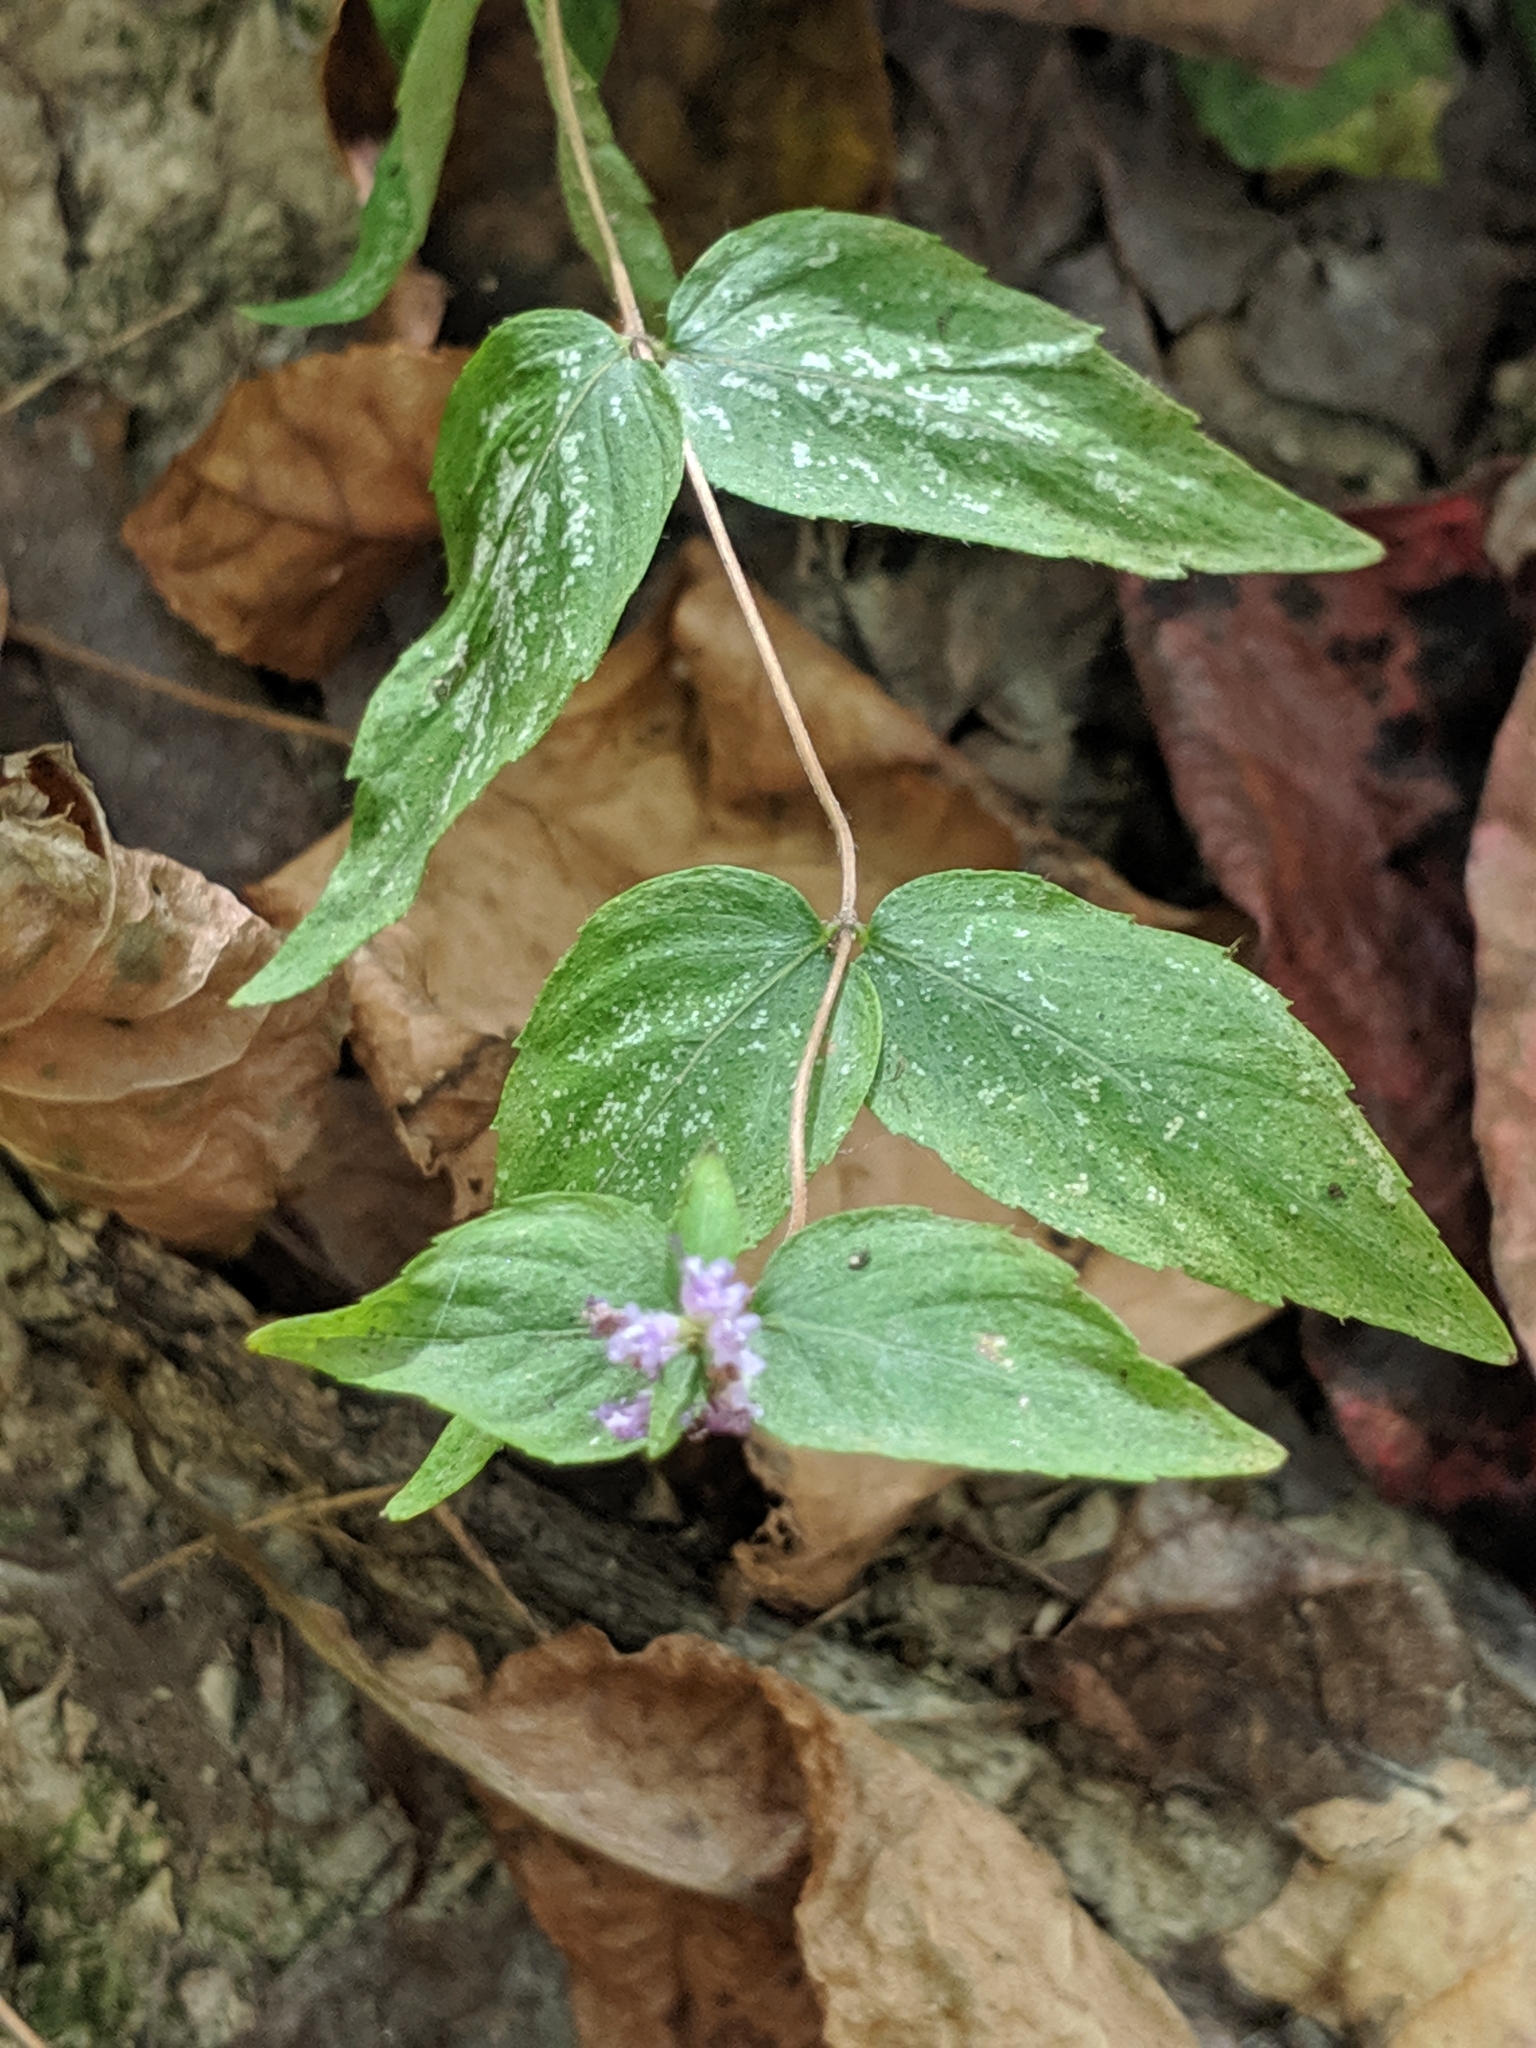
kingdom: Plantae
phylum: Tracheophyta
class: Magnoliopsida
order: Lamiales
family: Lamiaceae
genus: Cunila
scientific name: Cunila origanoides
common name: American dittany
